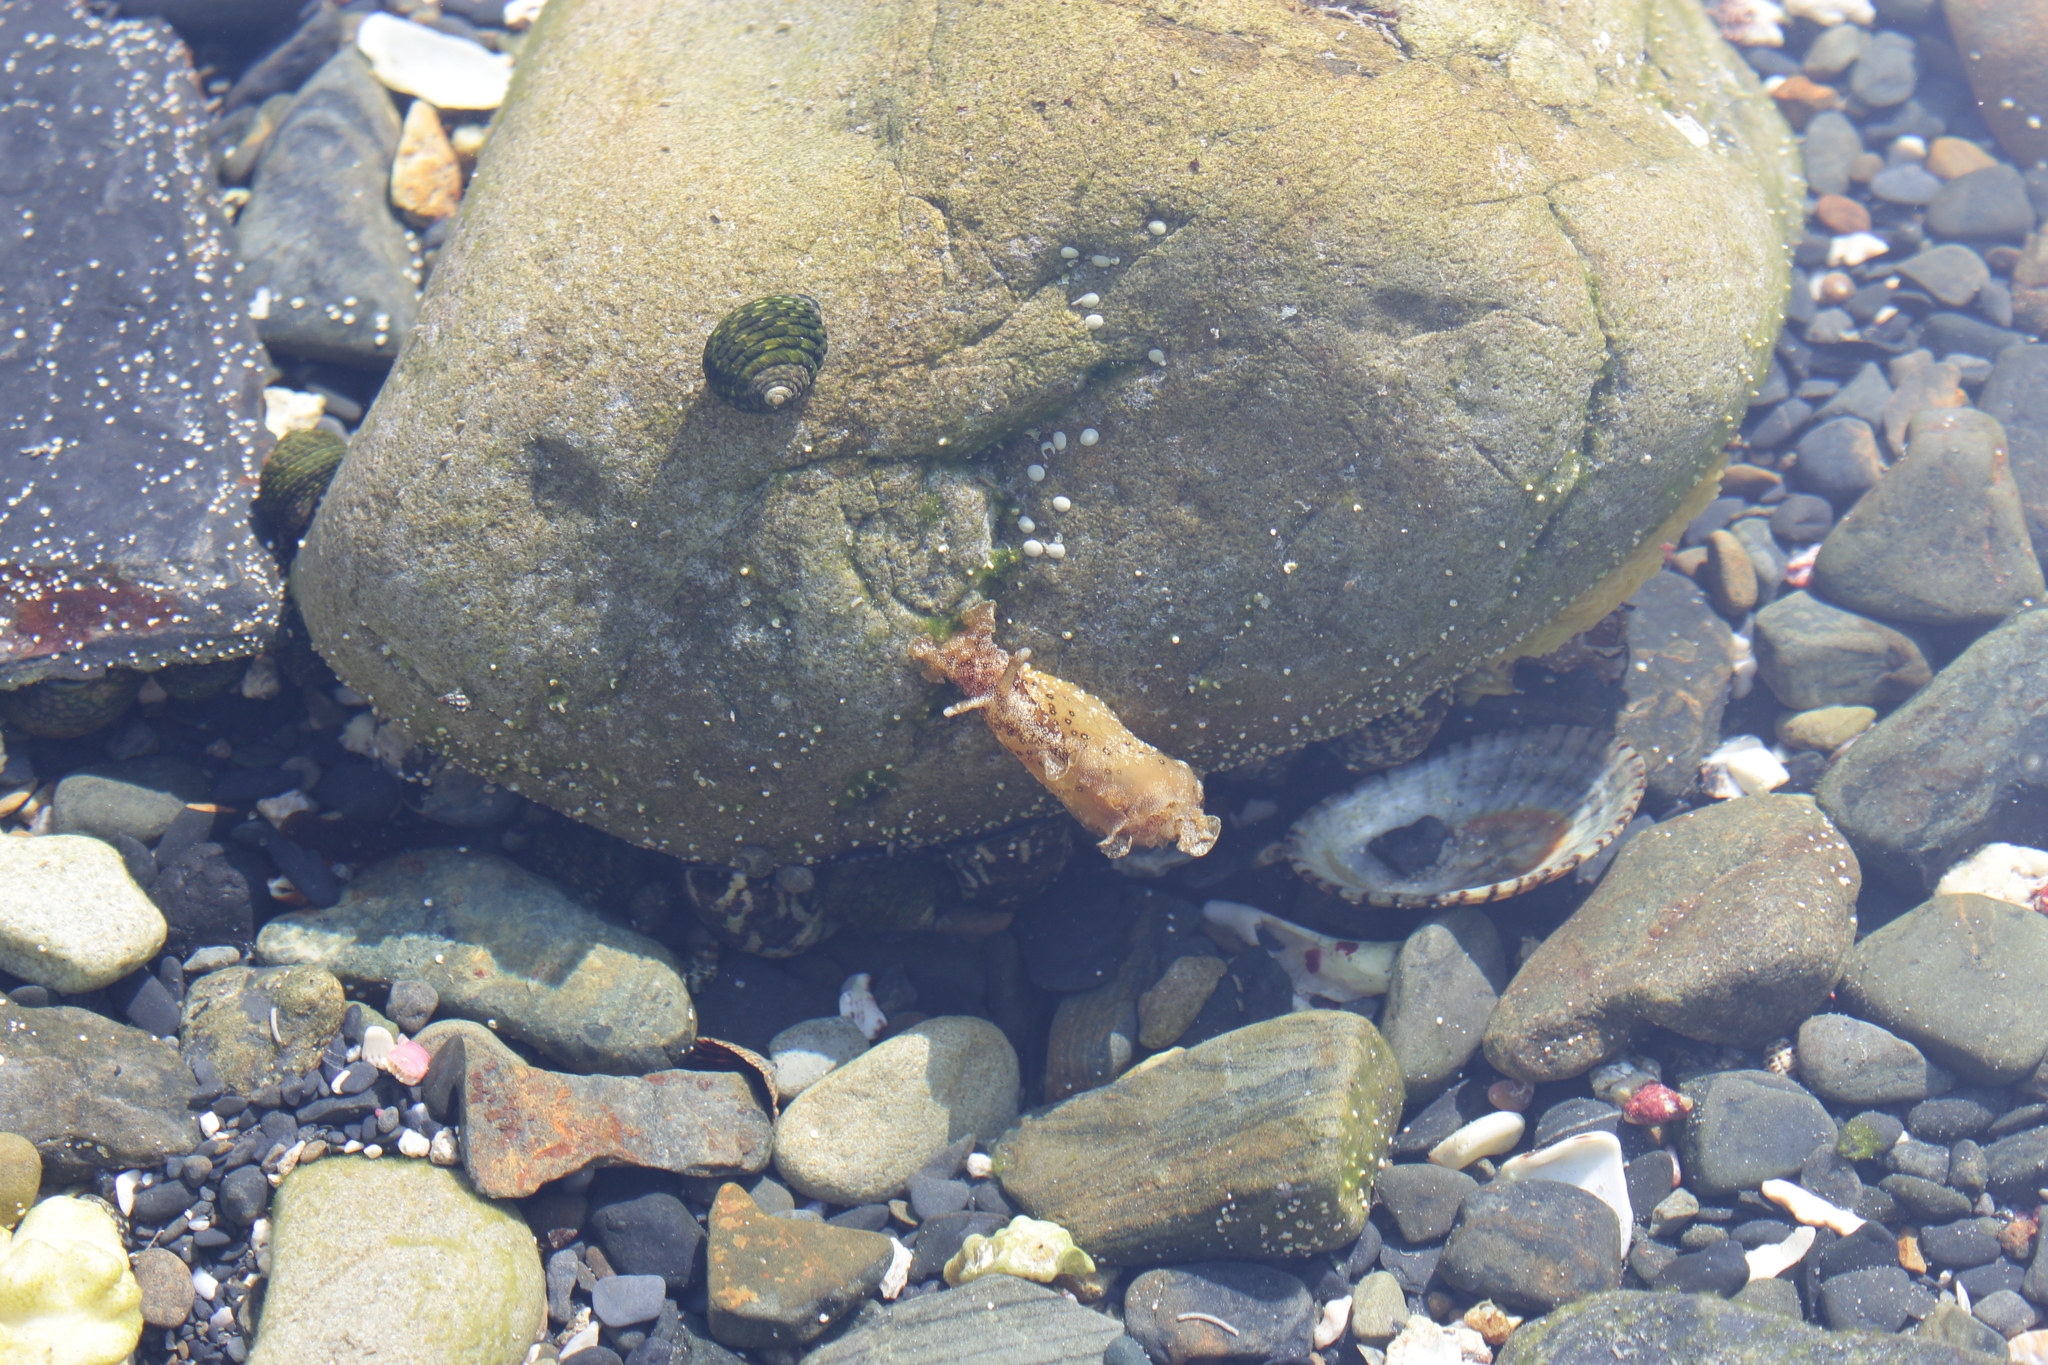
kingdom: Animalia
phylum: Mollusca
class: Gastropoda
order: Aplysiida
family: Aplysiidae
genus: Aplysia
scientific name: Aplysia oculifera
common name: Spotted sea hare
